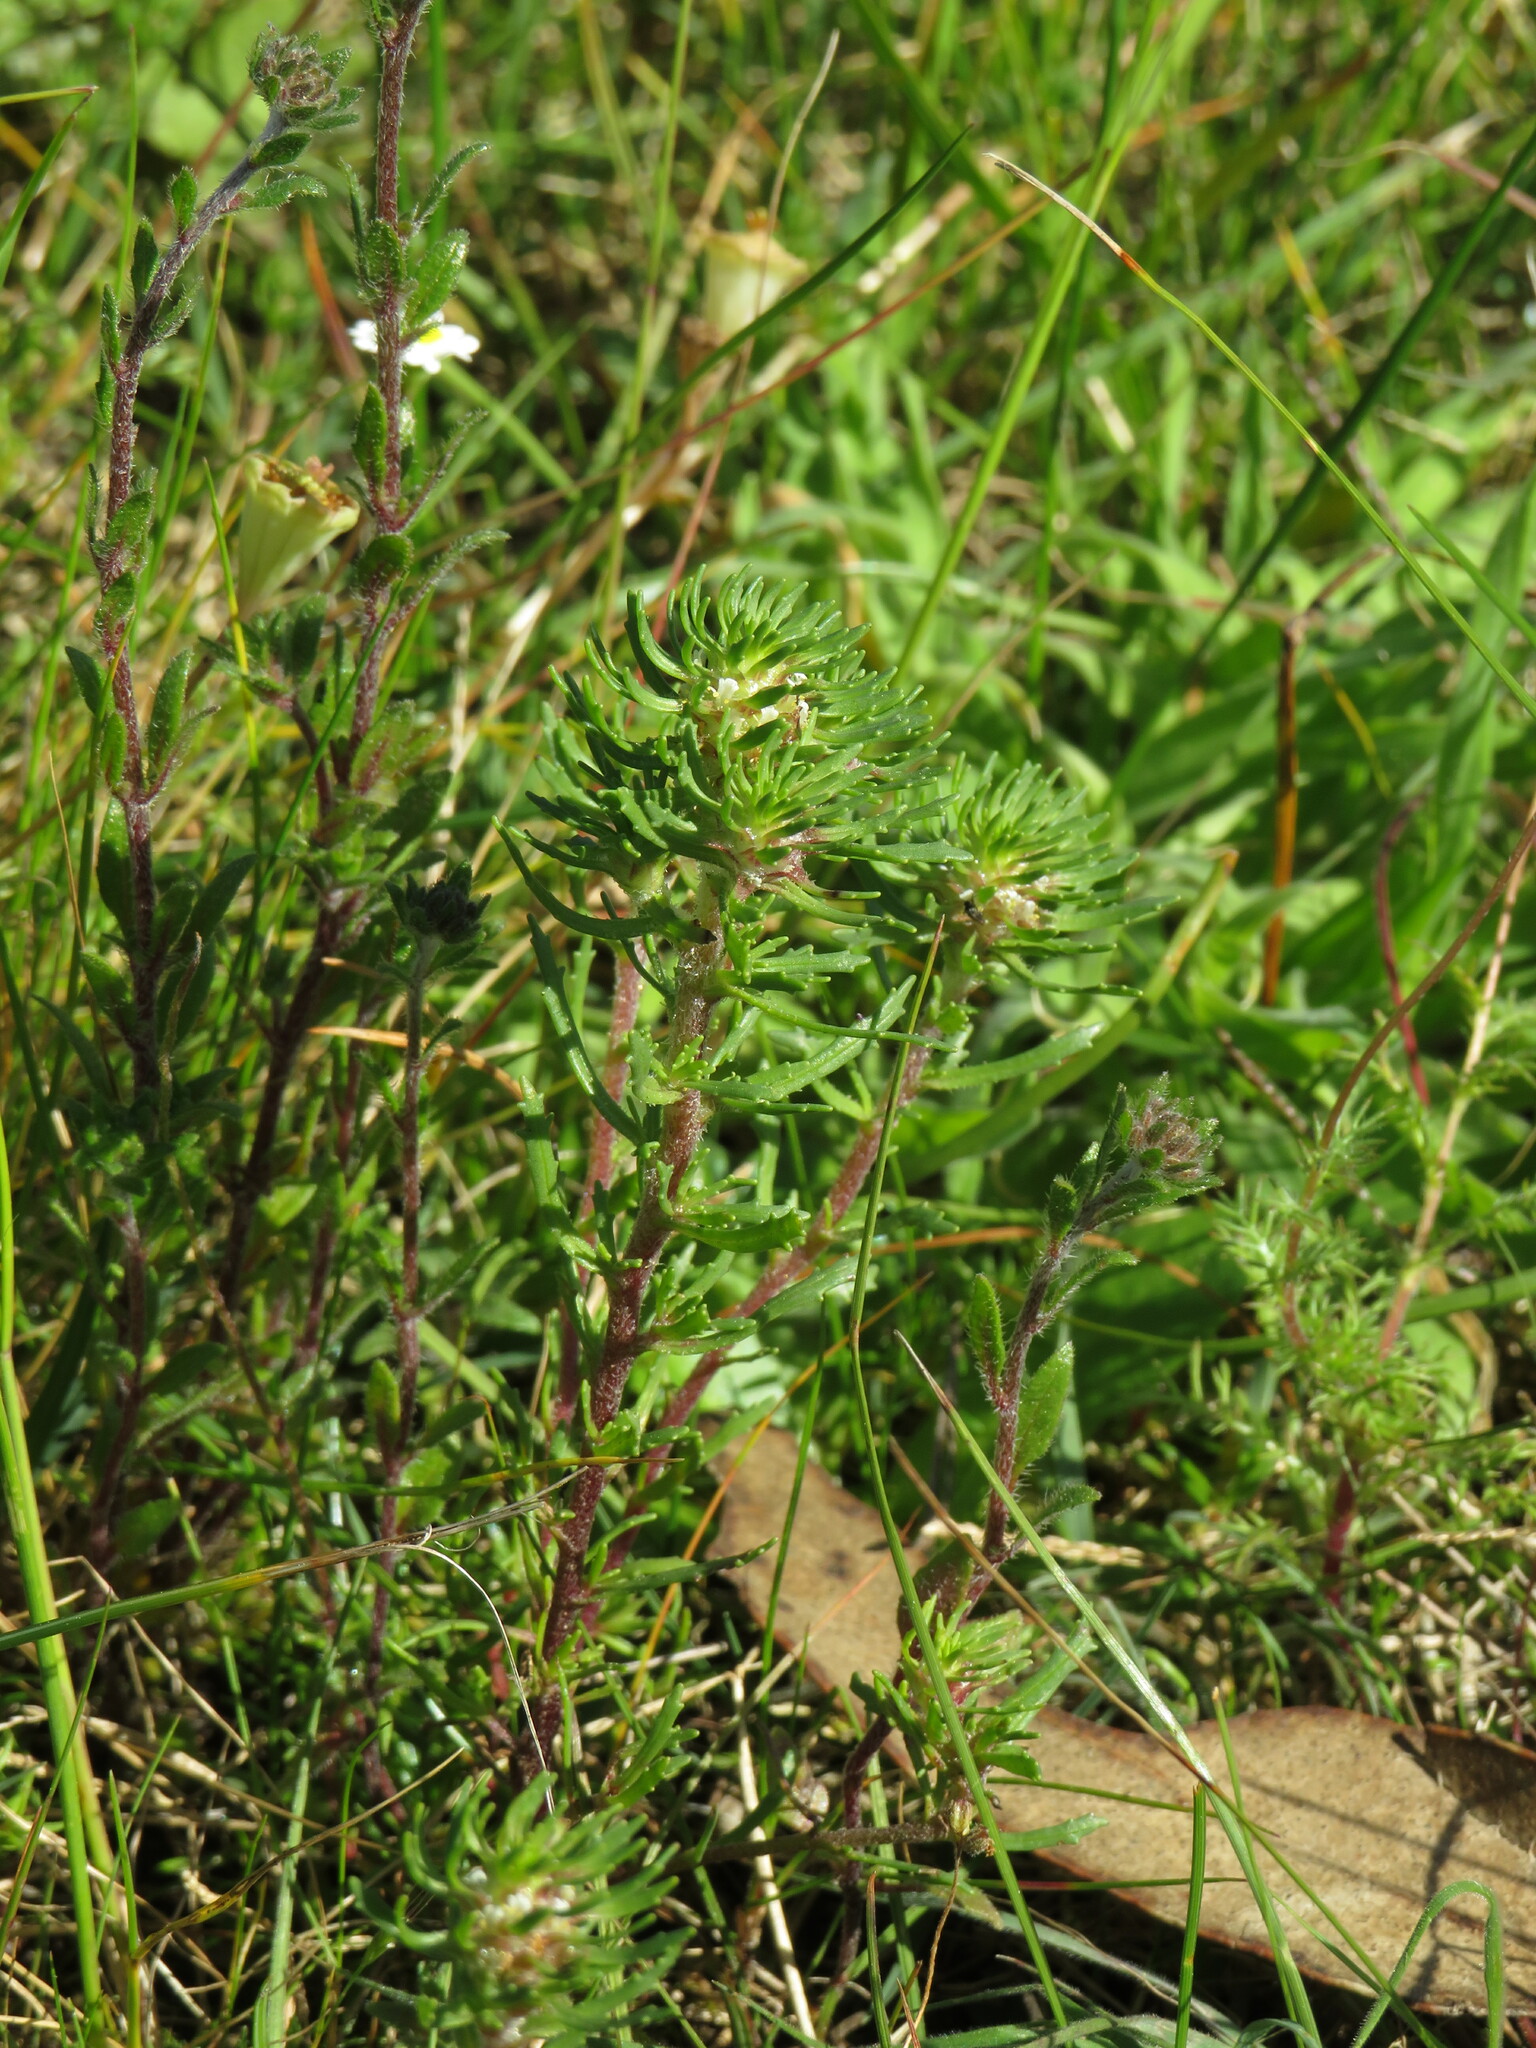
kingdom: Plantae
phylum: Tracheophyta
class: Magnoliopsida
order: Lamiales
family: Scrophulariaceae
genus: Dischisma
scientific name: Dischisma capitatum
